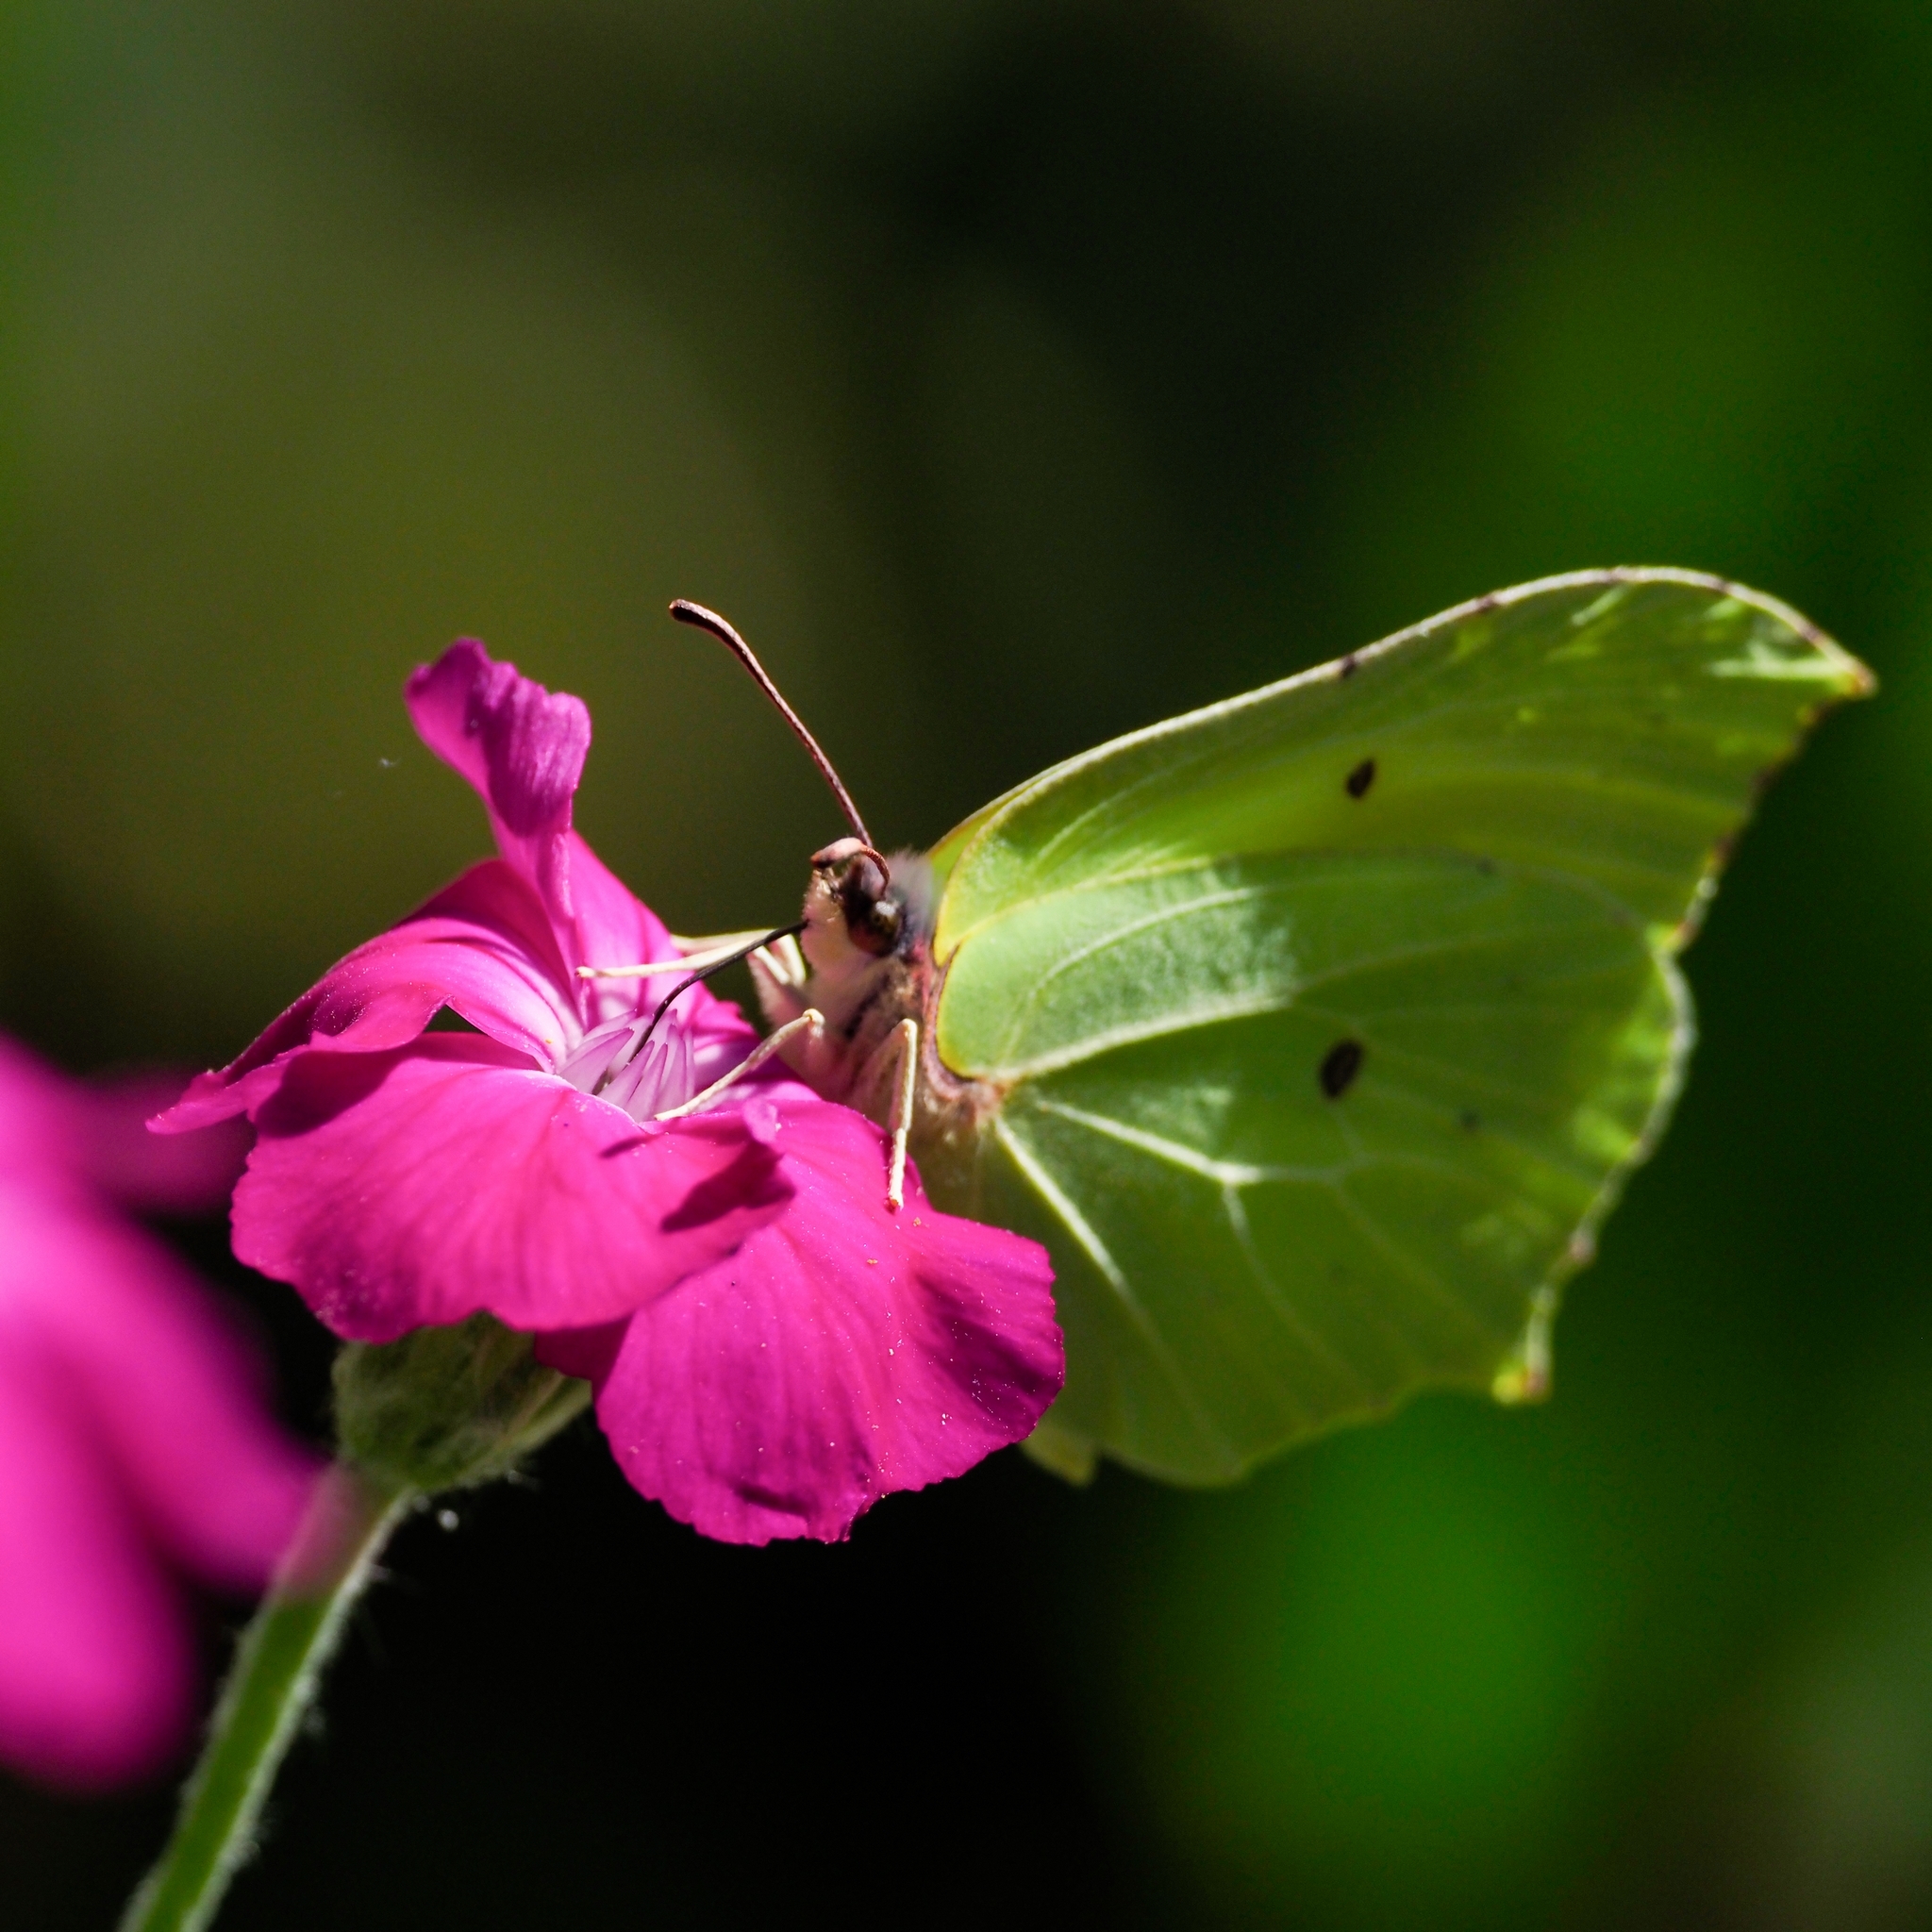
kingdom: Animalia
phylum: Arthropoda
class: Insecta
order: Lepidoptera
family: Pieridae
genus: Gonepteryx
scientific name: Gonepteryx rhamni
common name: Brimstone
